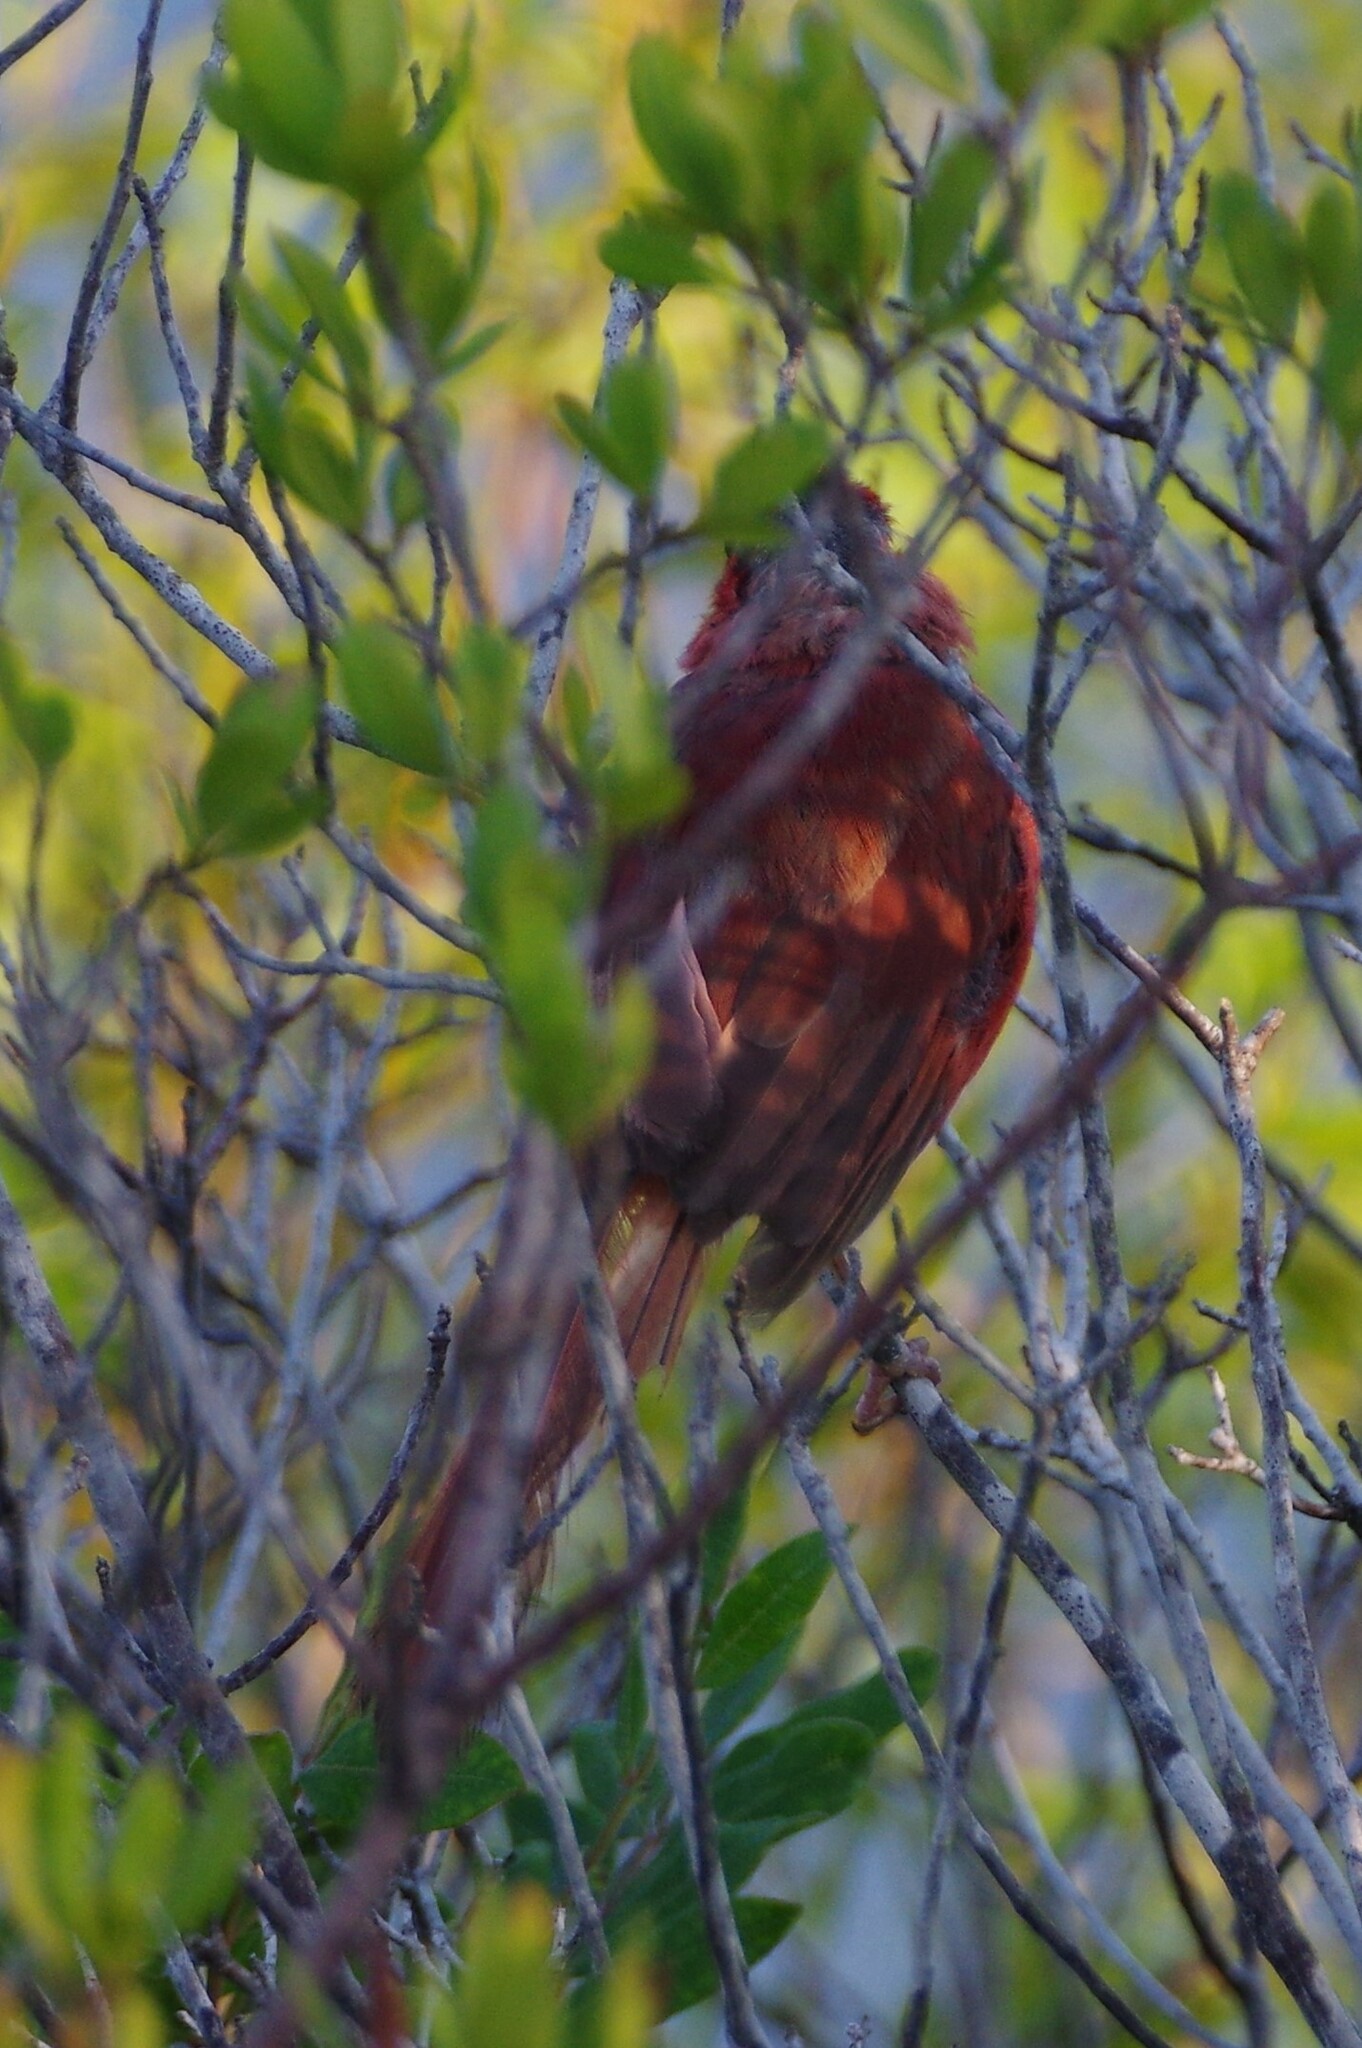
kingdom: Animalia
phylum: Chordata
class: Aves
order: Passeriformes
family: Cardinalidae
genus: Cardinalis
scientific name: Cardinalis cardinalis
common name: Northern cardinal
